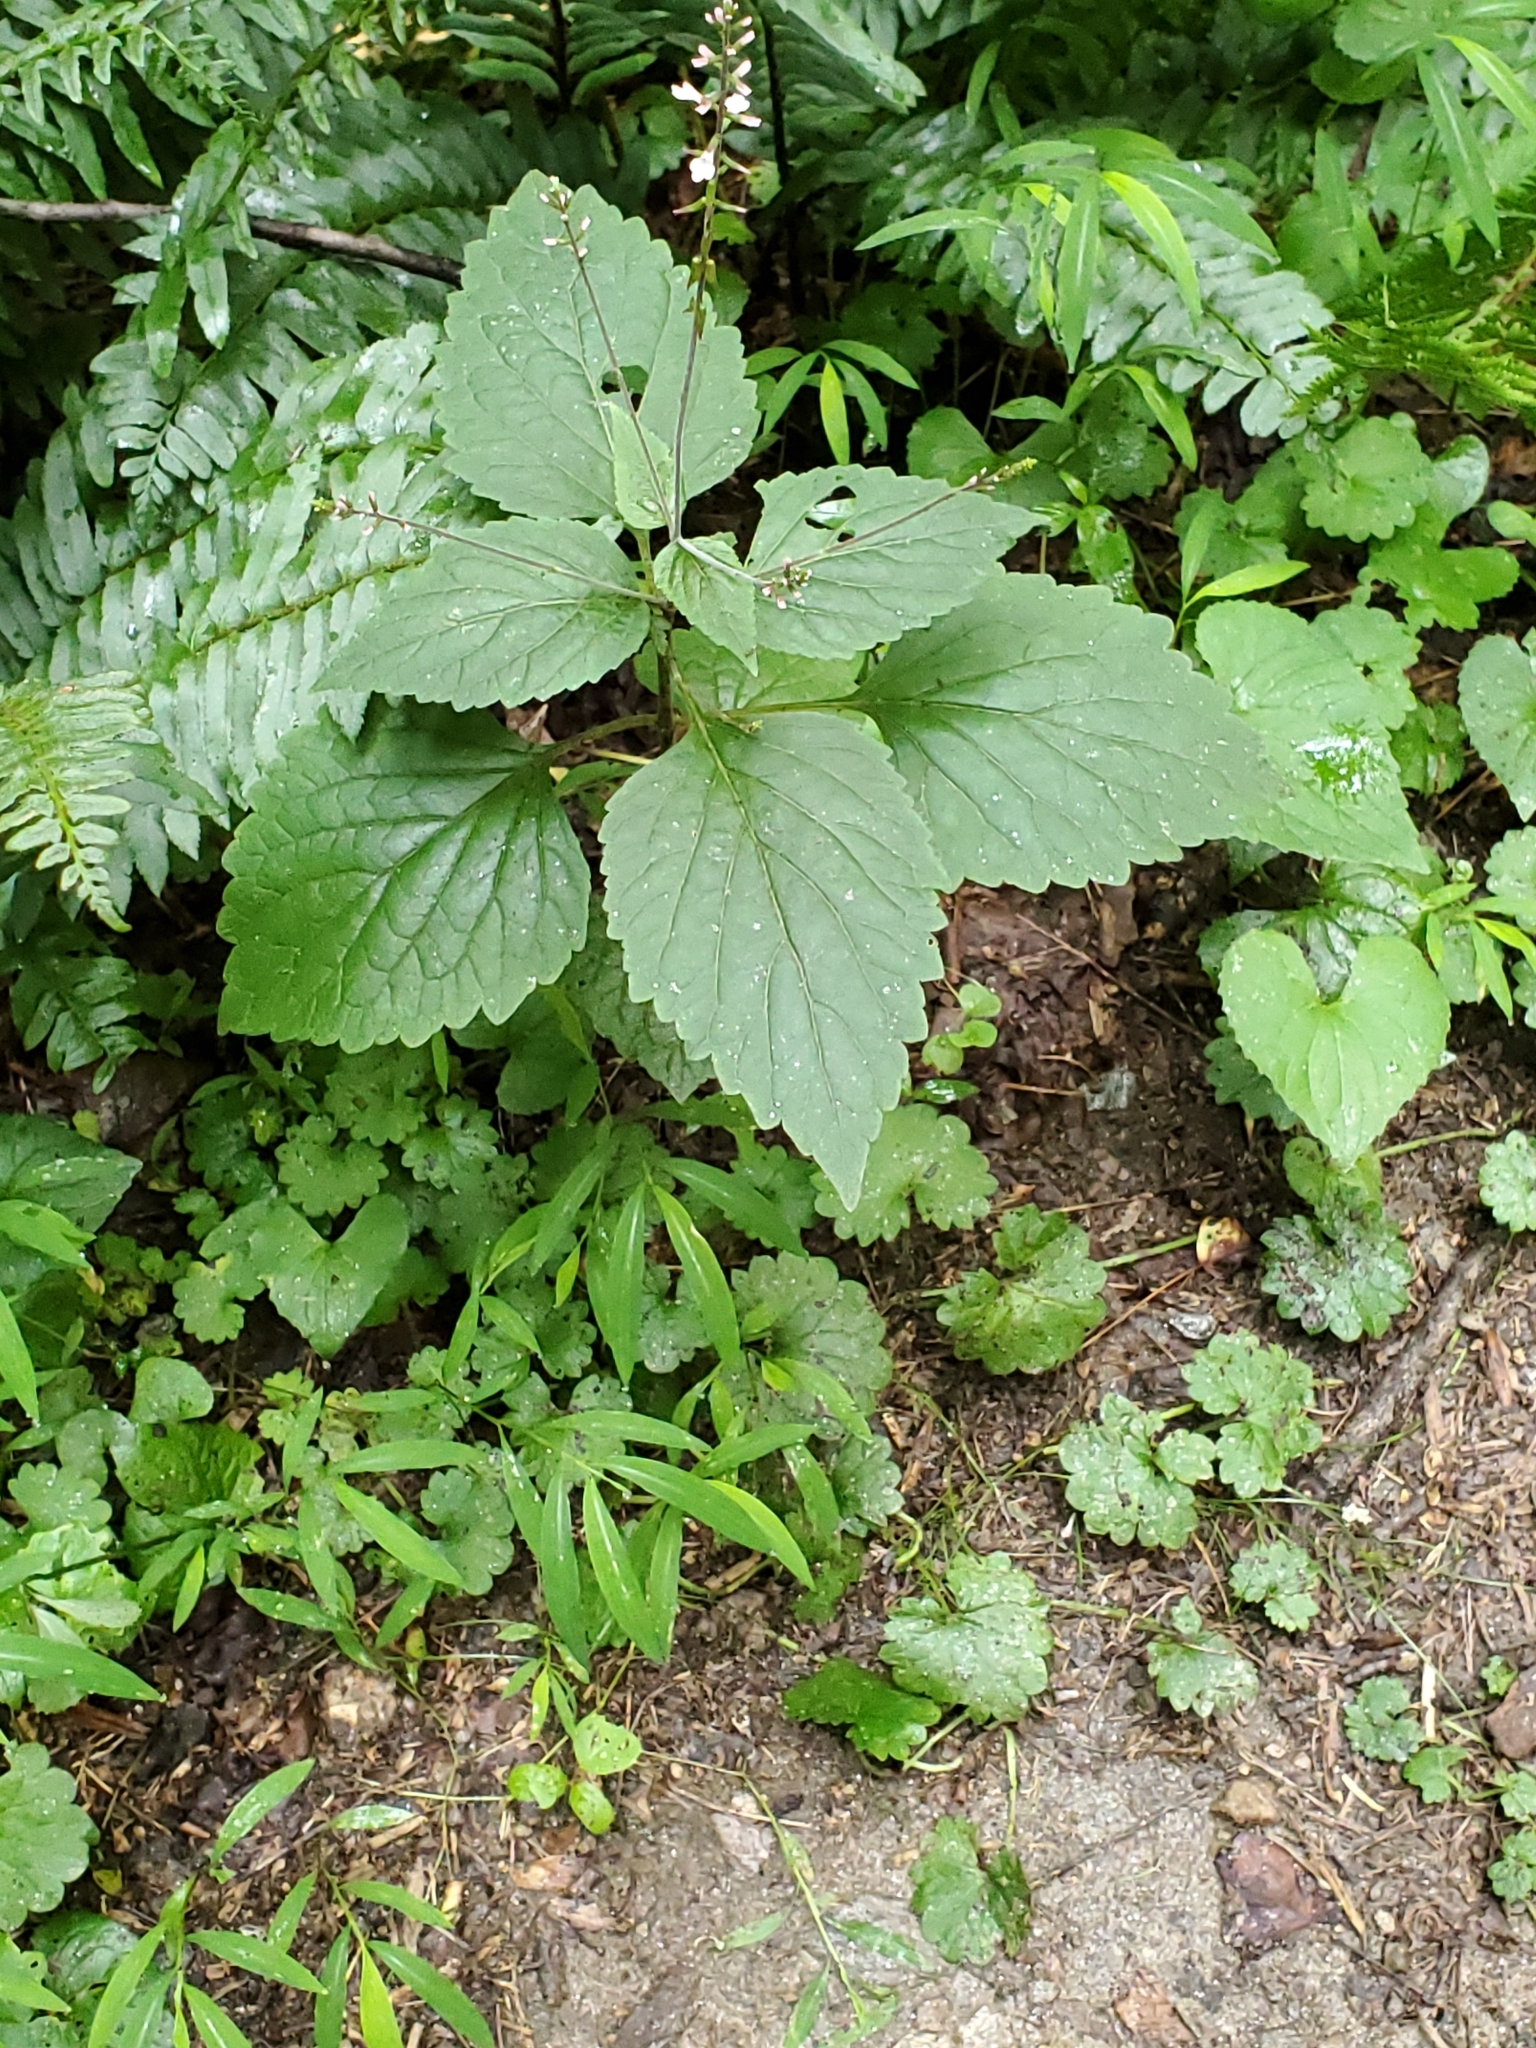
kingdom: Plantae
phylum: Tracheophyta
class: Magnoliopsida
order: Lamiales
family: Phrymaceae
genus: Phryma
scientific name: Phryma leptostachya
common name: American lopseed
